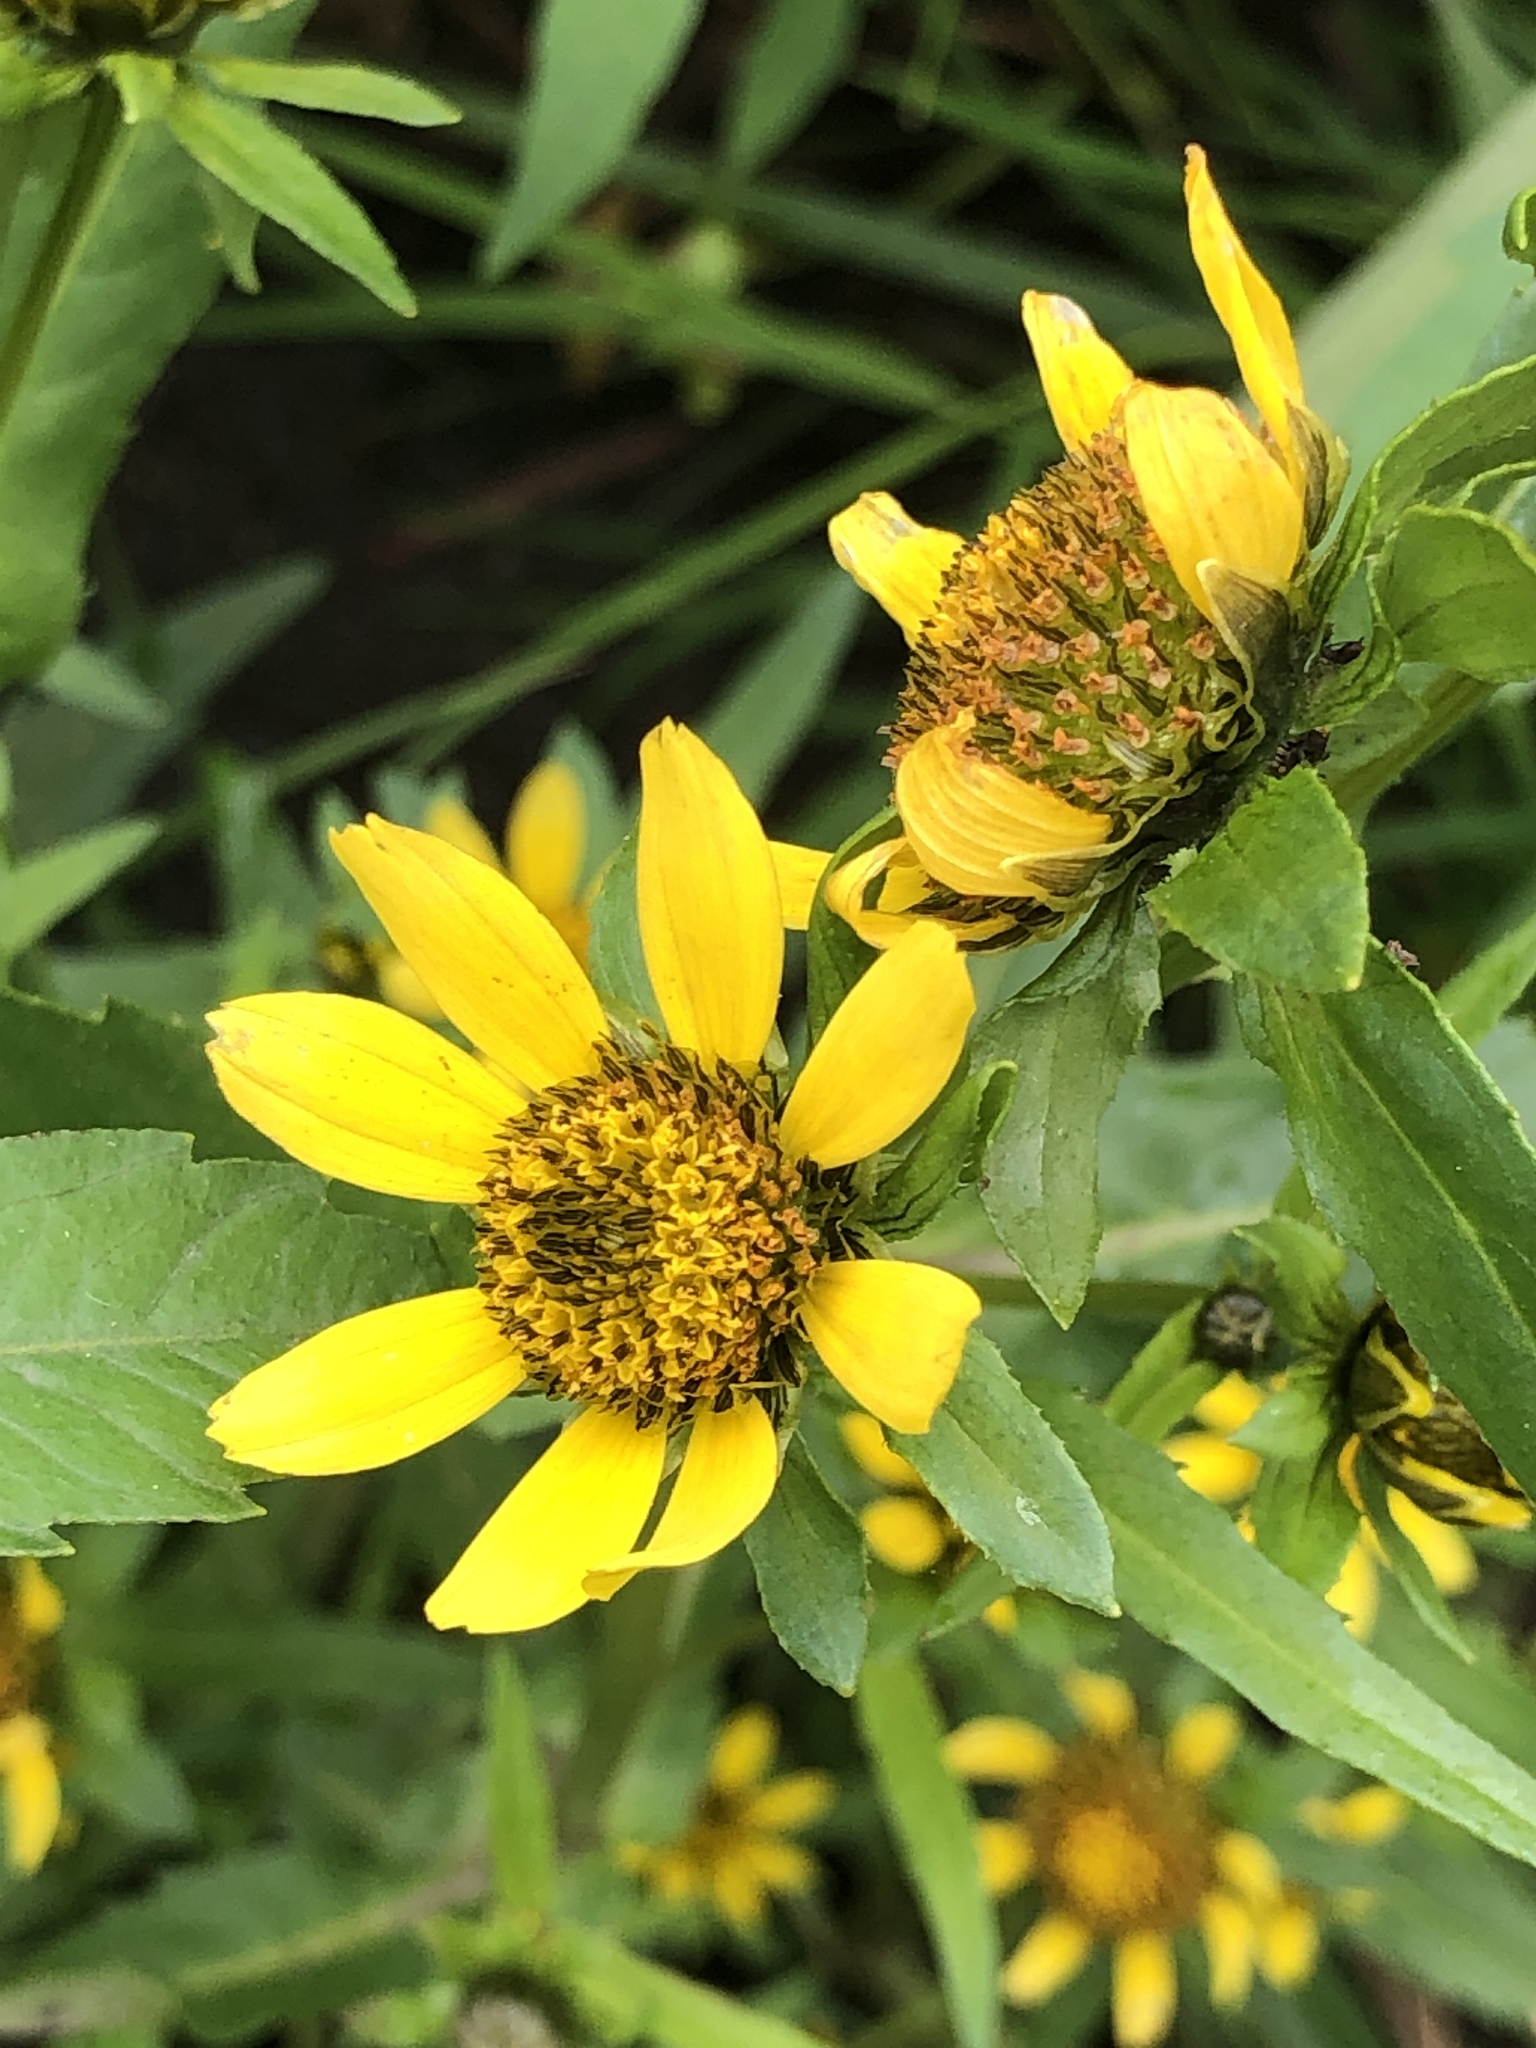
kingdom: Plantae
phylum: Tracheophyta
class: Magnoliopsida
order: Asterales
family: Asteraceae
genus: Bidens
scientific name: Bidens cernua
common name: Nodding bur-marigold
